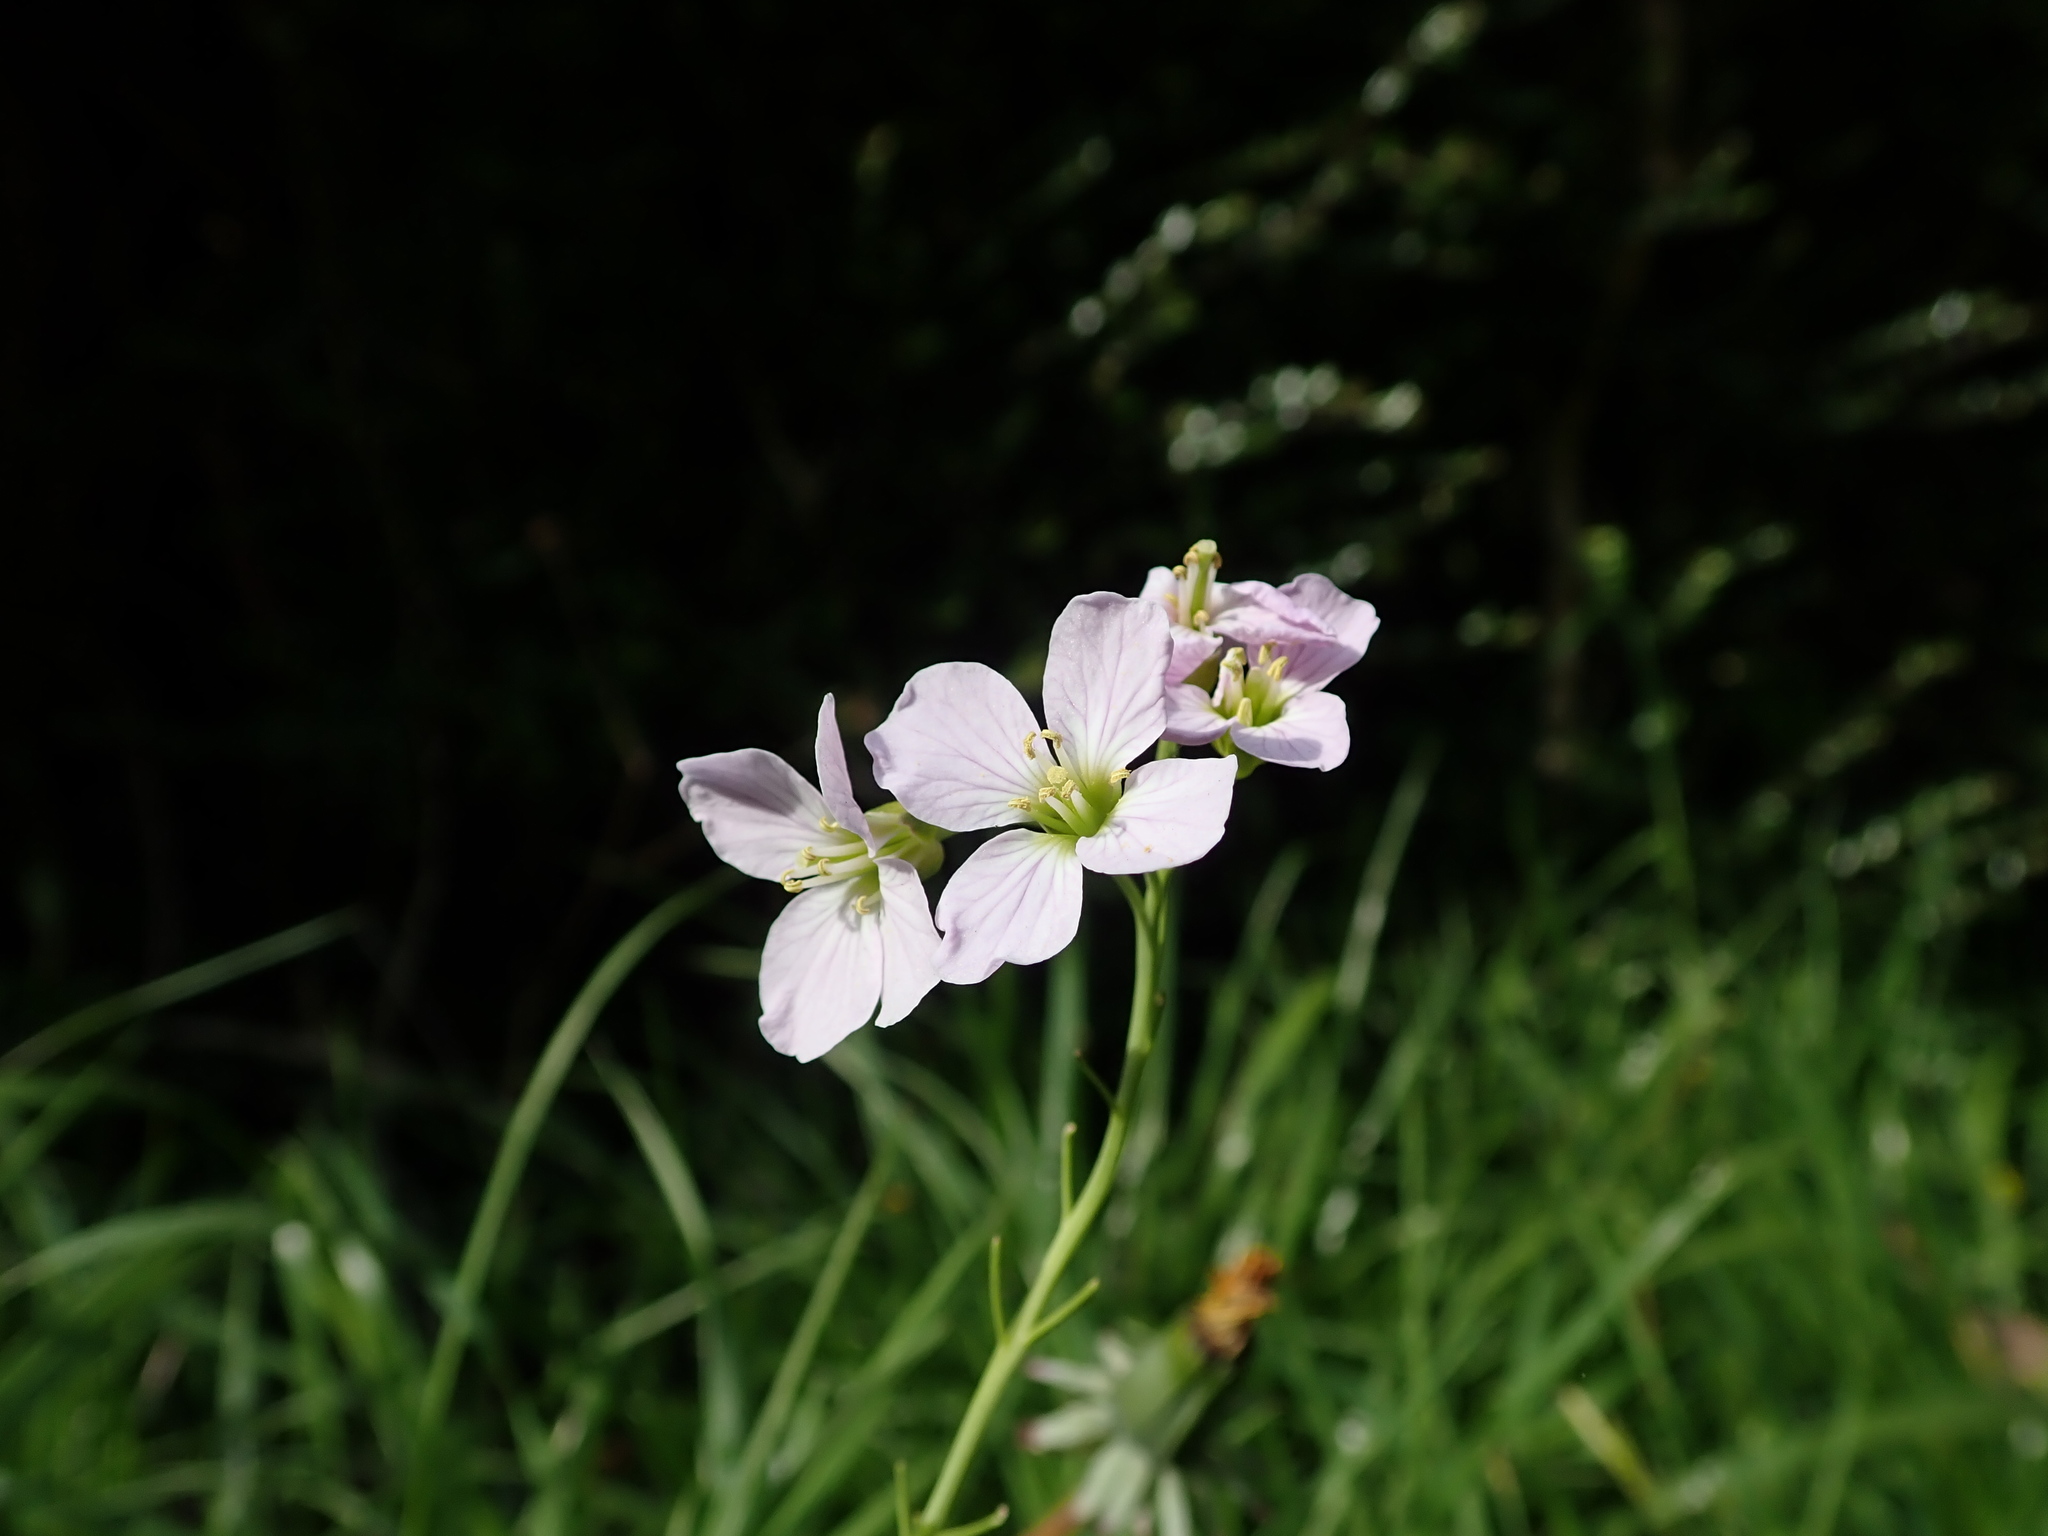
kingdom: Plantae
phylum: Tracheophyta
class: Magnoliopsida
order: Brassicales
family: Brassicaceae
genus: Cardamine
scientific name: Cardamine pratensis
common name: Cuckoo flower
